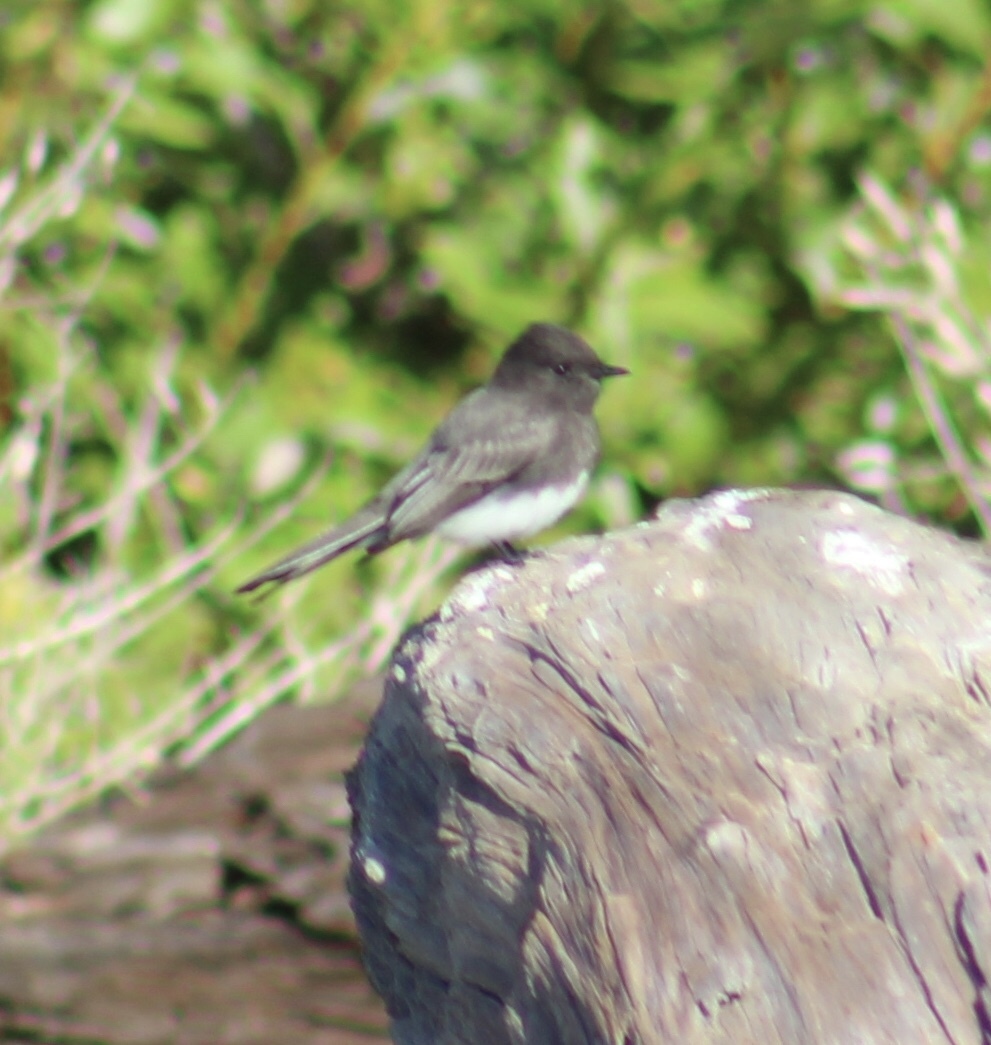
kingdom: Animalia
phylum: Chordata
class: Aves
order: Passeriformes
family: Tyrannidae
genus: Sayornis
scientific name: Sayornis nigricans
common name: Black phoebe
